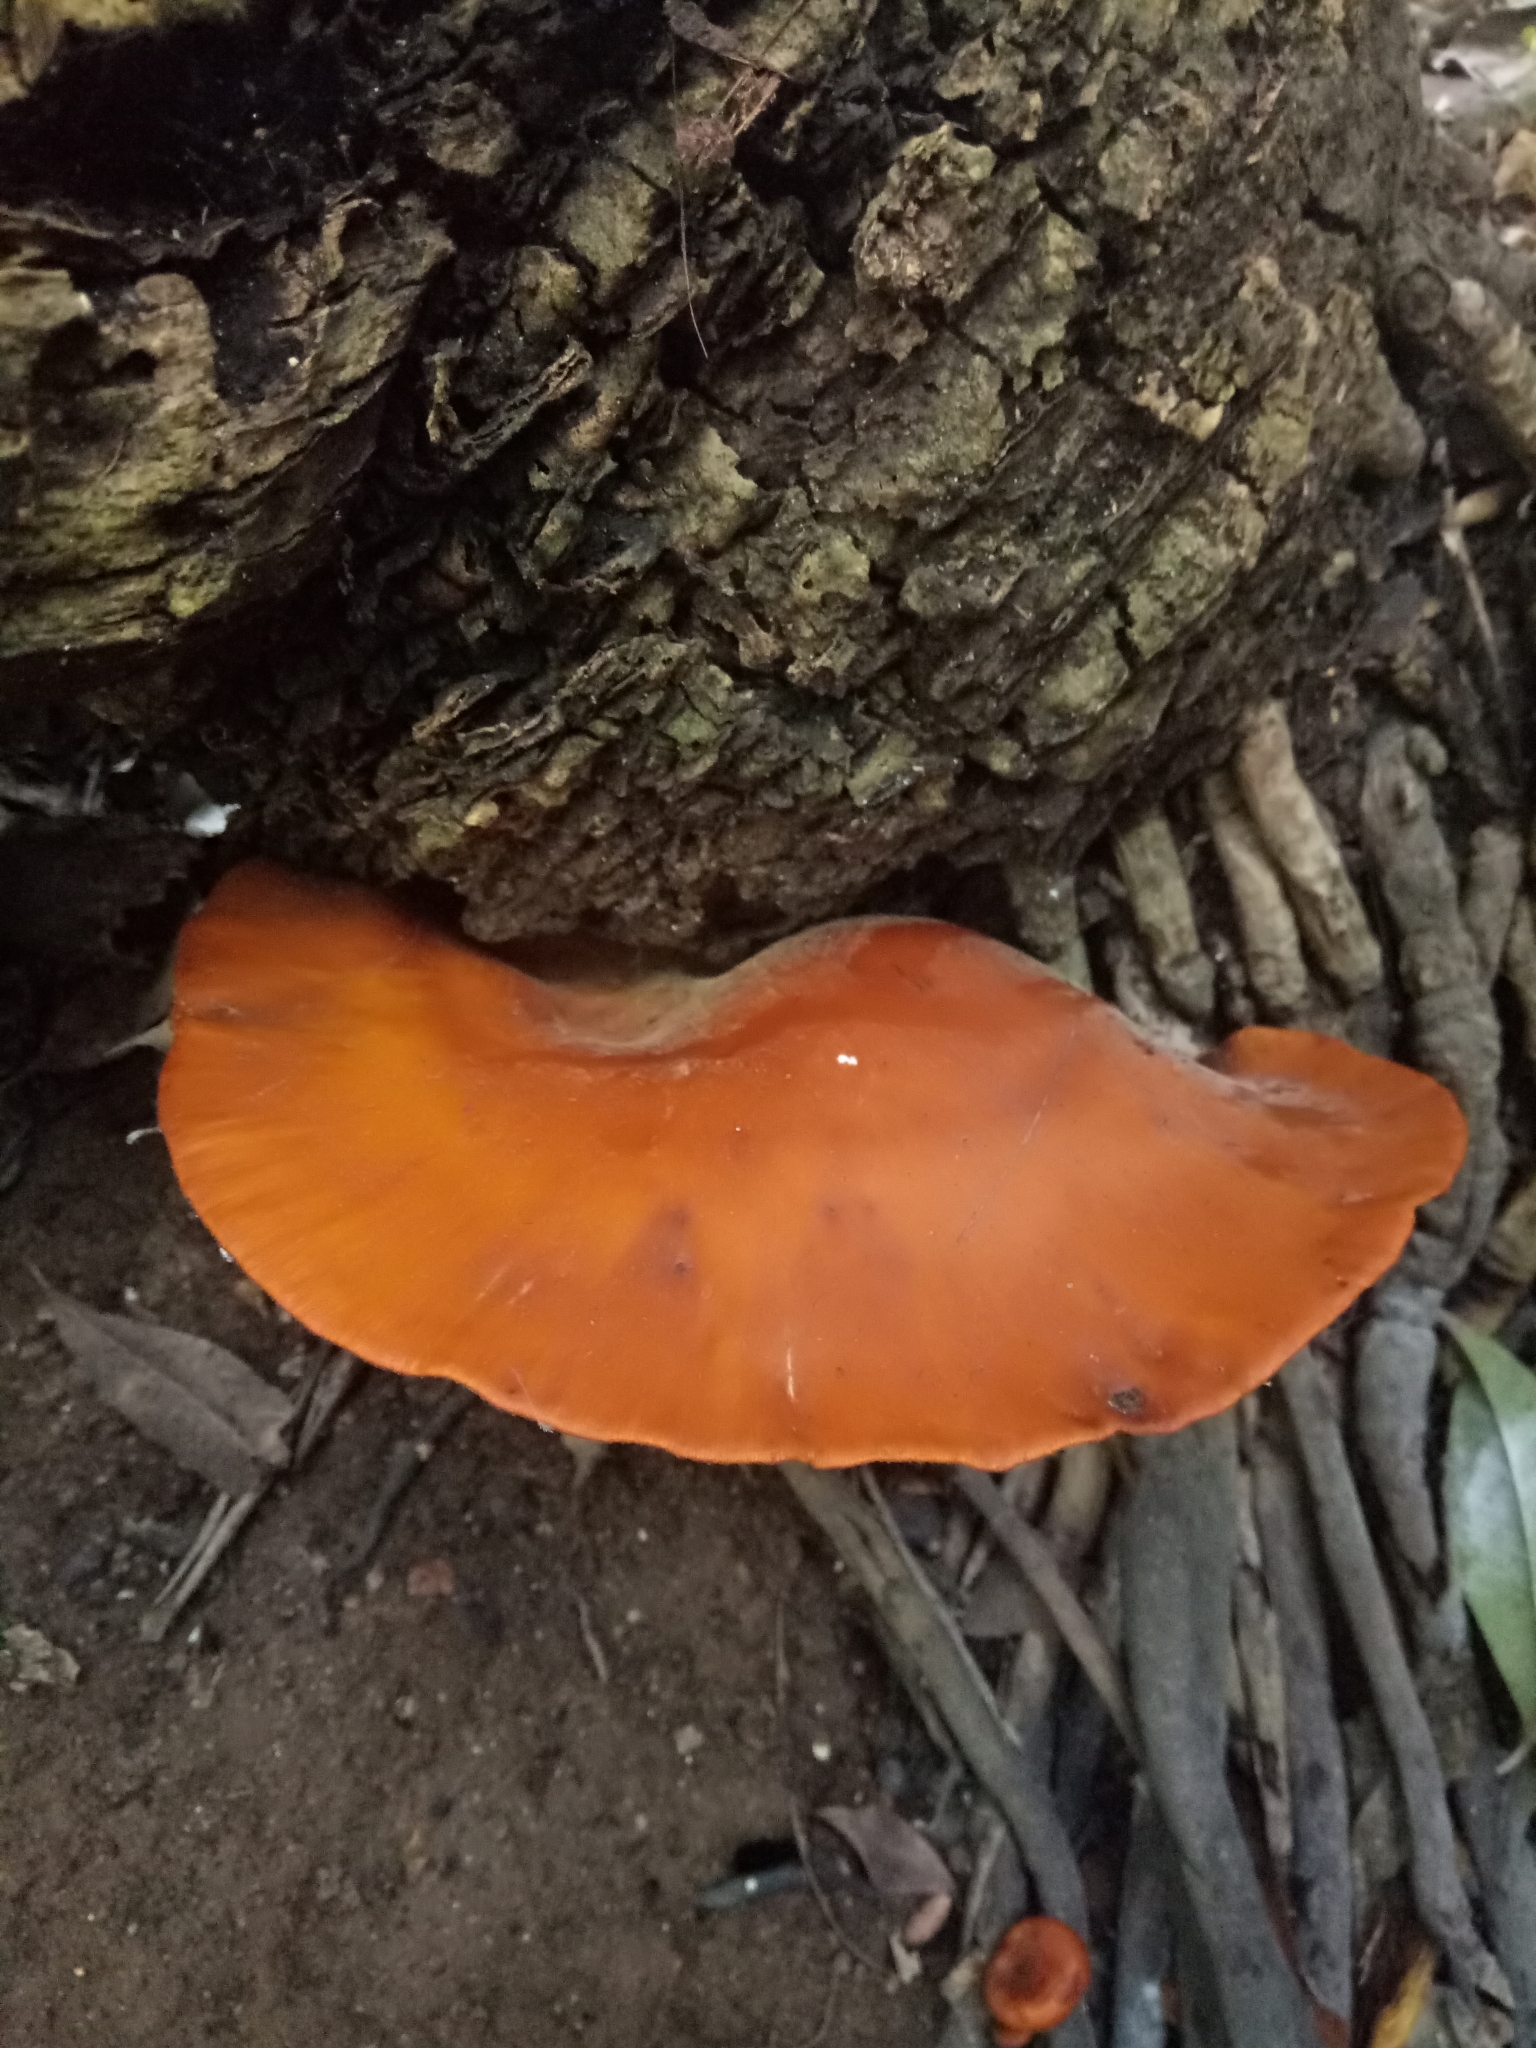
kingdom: Fungi
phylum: Basidiomycota
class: Agaricomycetes
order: Agaricales
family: Omphalotaceae
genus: Omphalotus
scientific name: Omphalotus olearius
